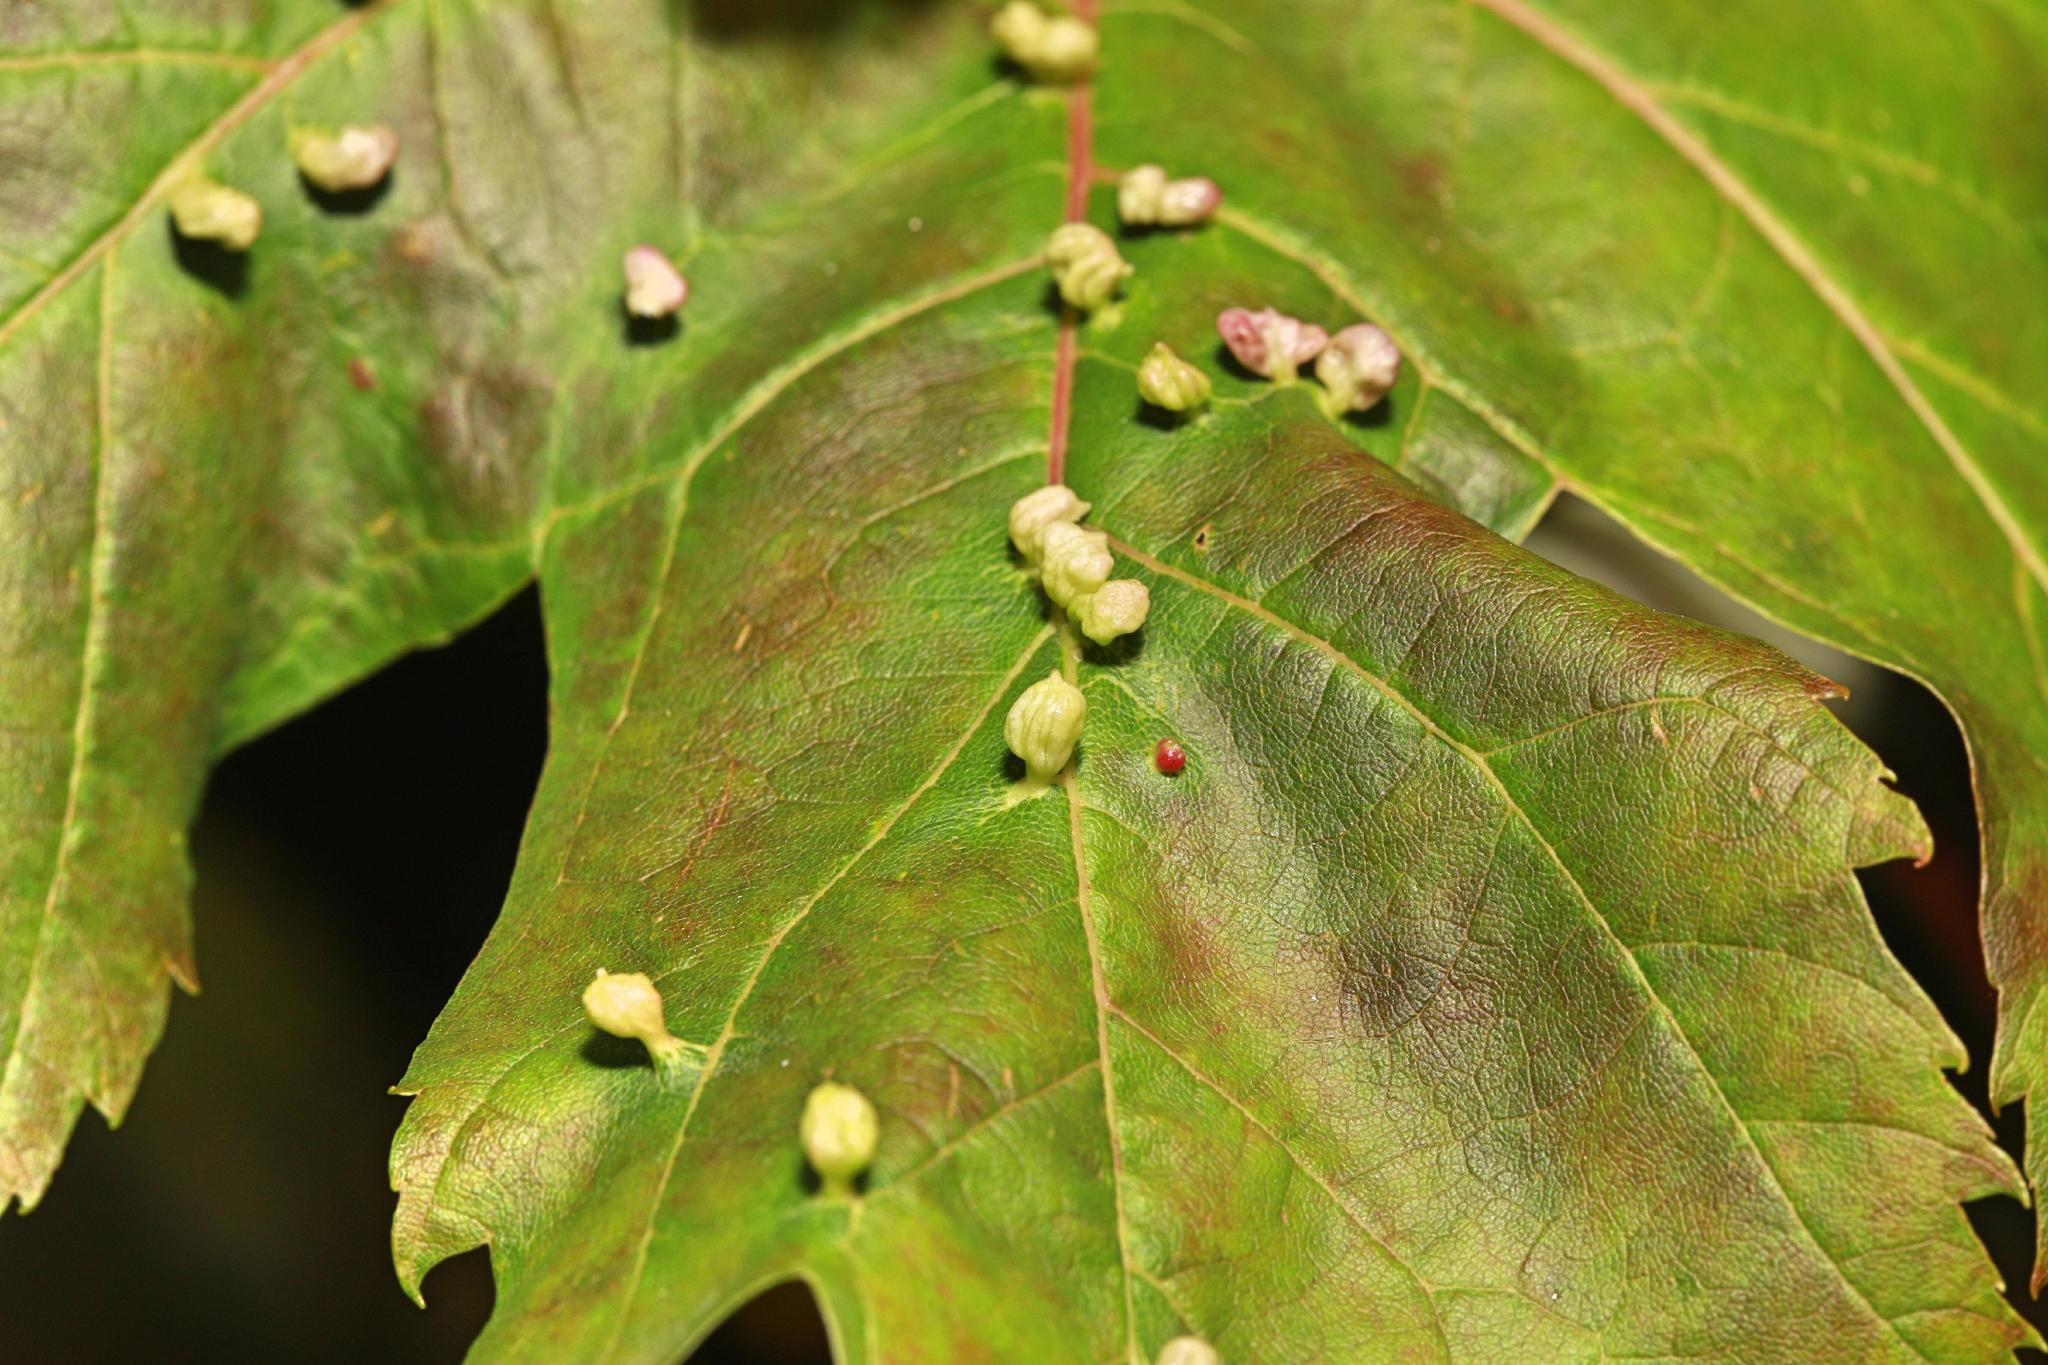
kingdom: Animalia
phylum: Arthropoda
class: Arachnida
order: Trombidiformes
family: Eriophyidae
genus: Vasates
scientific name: Vasates quadripedes
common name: Maple bladder gall mite
